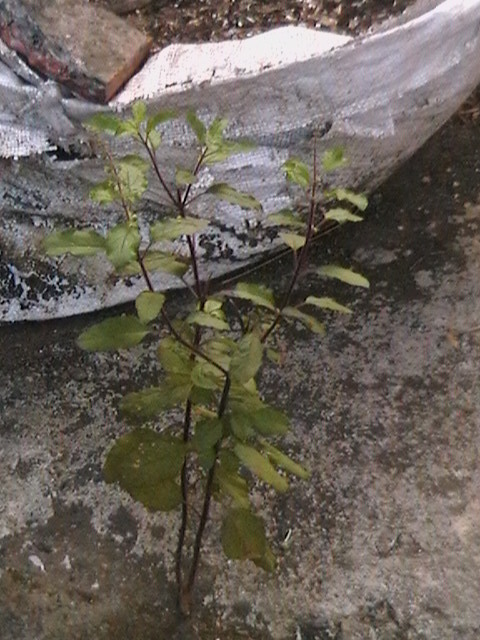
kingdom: Plantae
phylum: Tracheophyta
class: Magnoliopsida
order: Lamiales
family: Lamiaceae
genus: Ocimum
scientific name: Ocimum tenuiflorum
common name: Sacred basil
